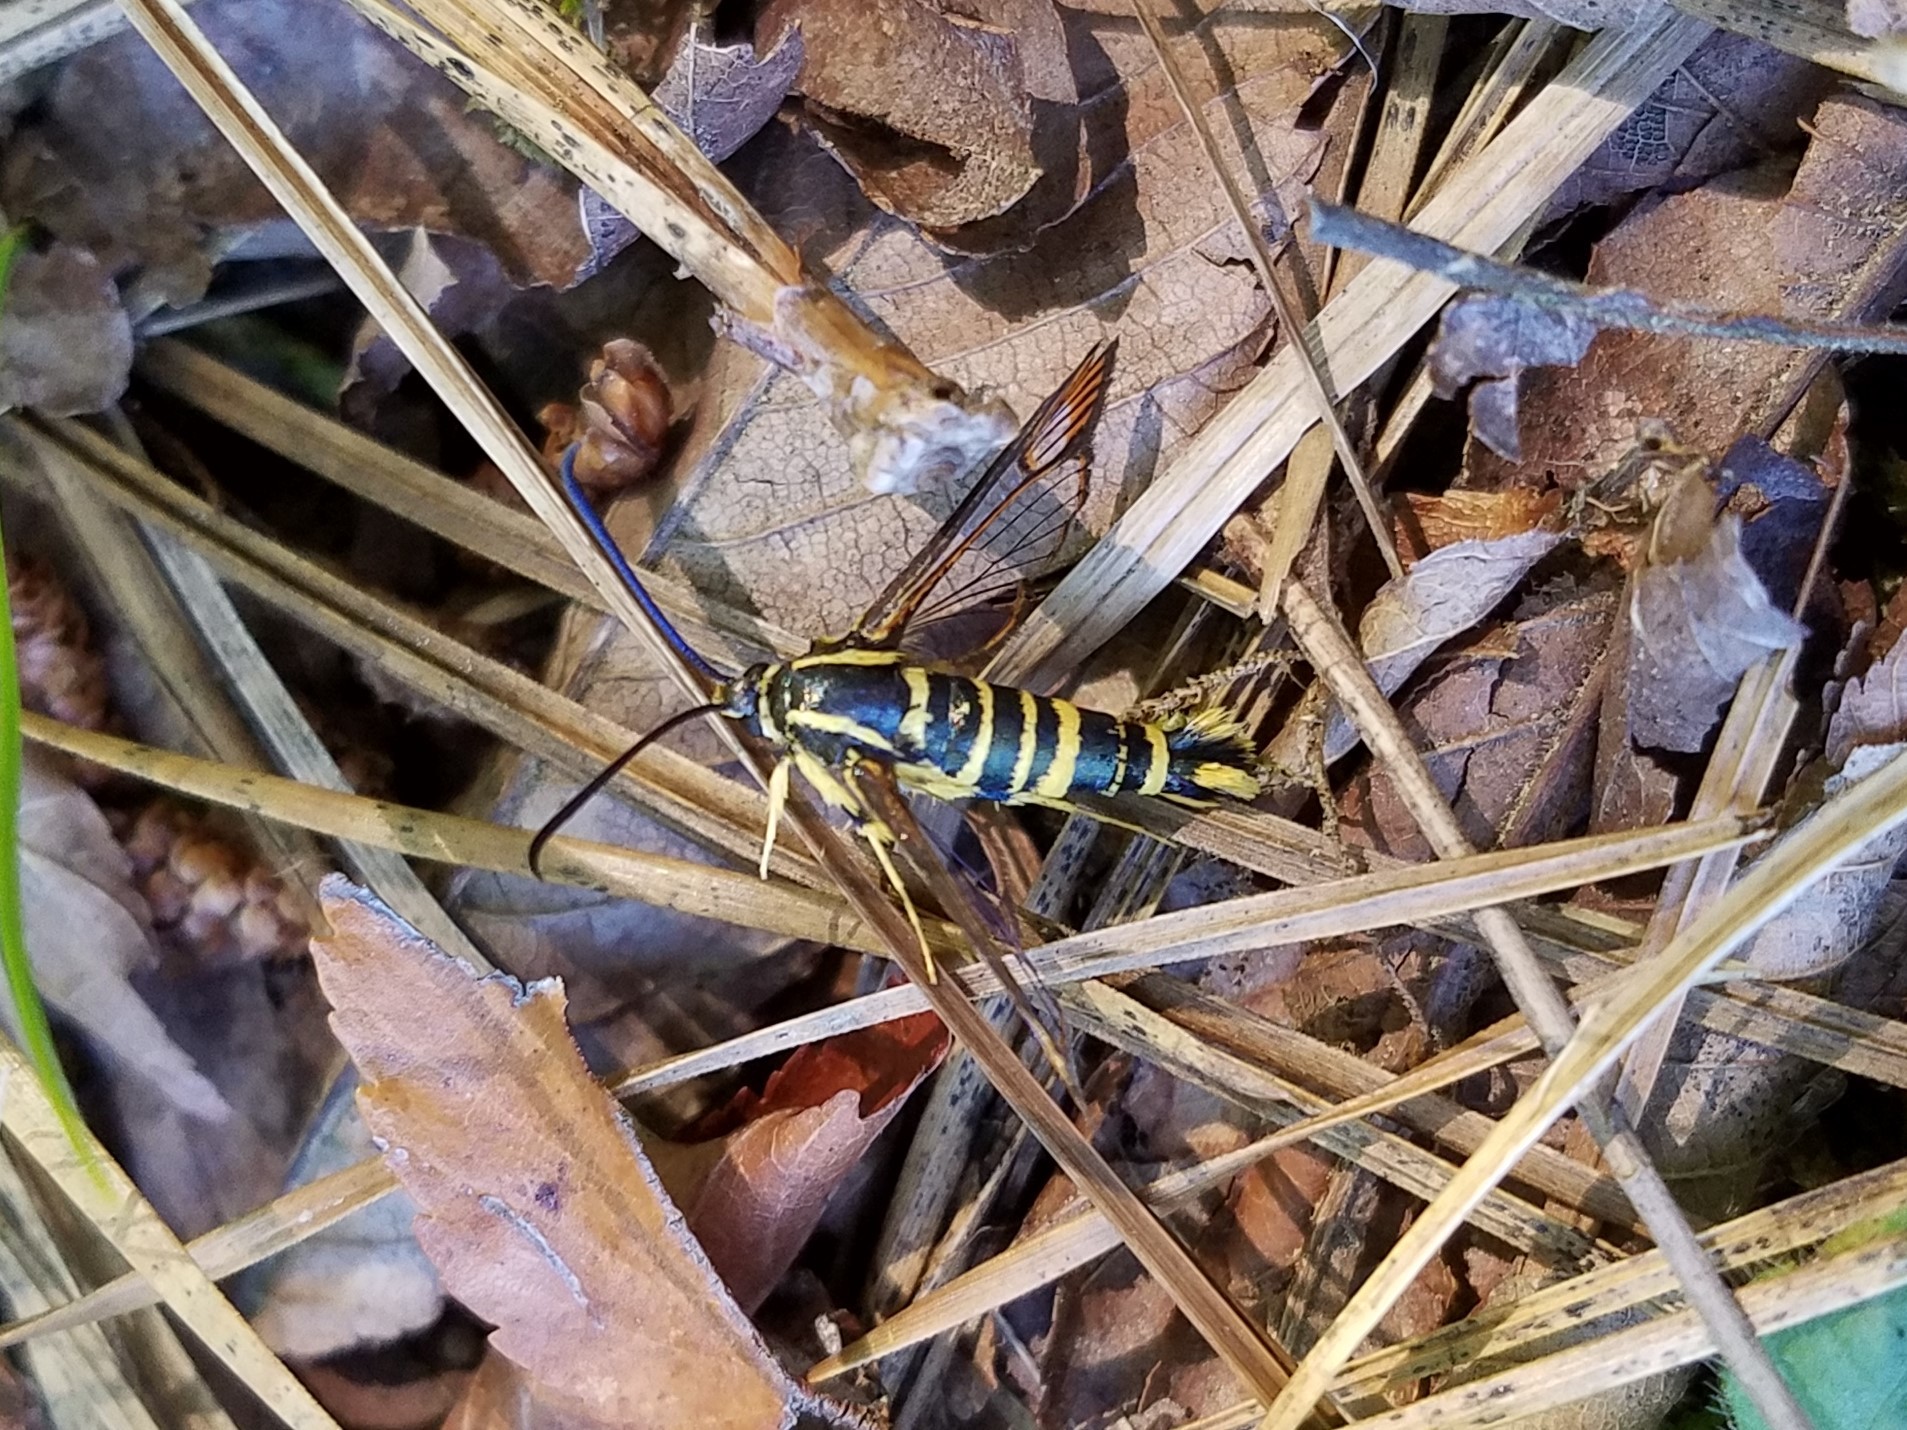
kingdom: Animalia
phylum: Arthropoda
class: Insecta
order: Lepidoptera
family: Sesiidae
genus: Synanthedon
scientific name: Synanthedon scitula
